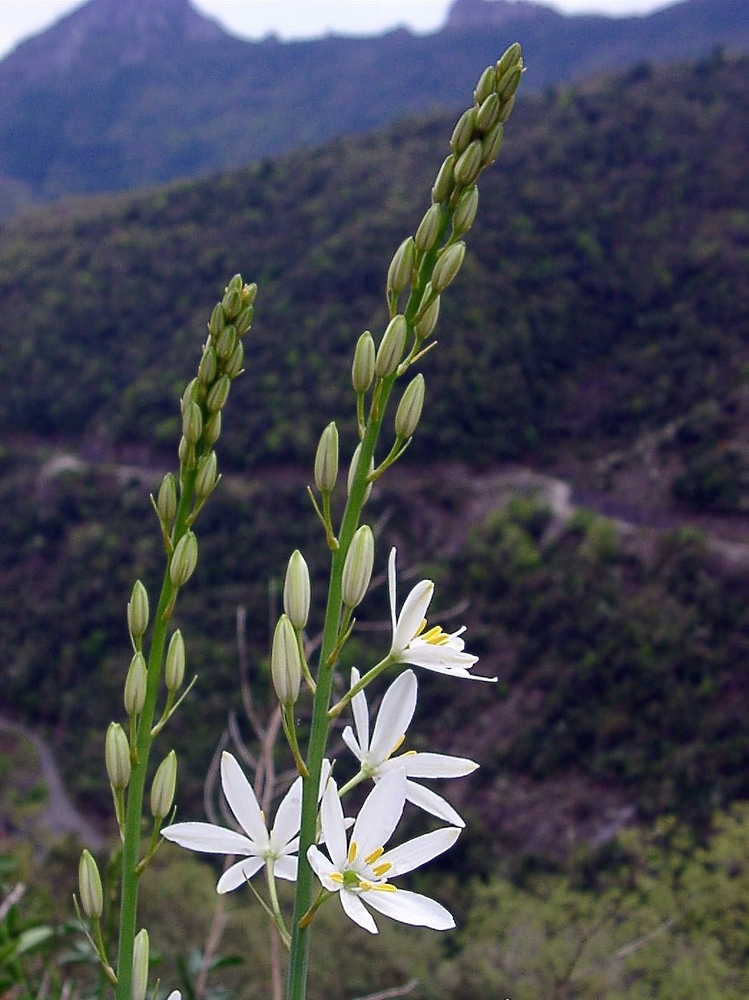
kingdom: Plantae
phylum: Tracheophyta
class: Liliopsida
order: Asparagales
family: Asparagaceae
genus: Anthericum
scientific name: Anthericum liliago
